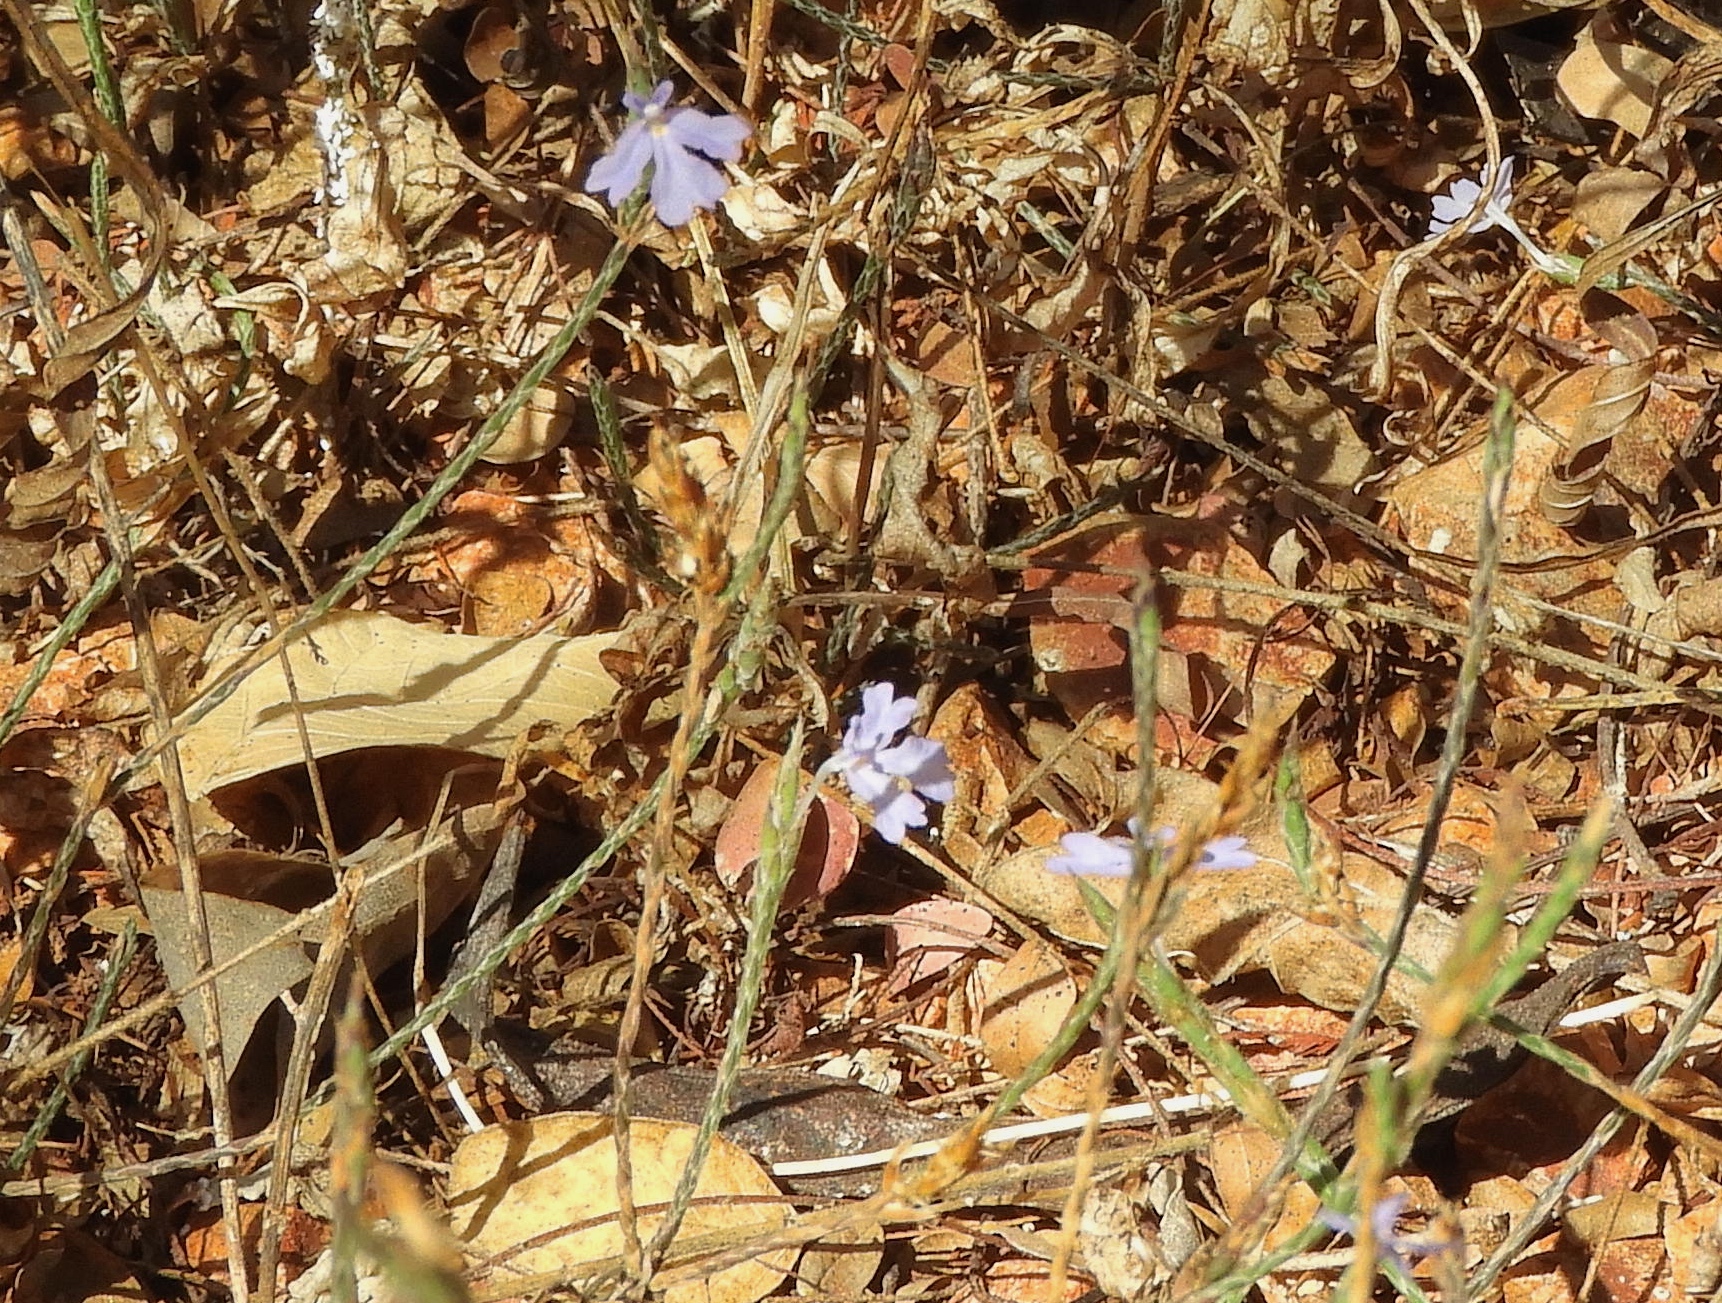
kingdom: Plantae
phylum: Tracheophyta
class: Magnoliopsida
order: Lamiales
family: Acanthaceae
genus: Elytraria
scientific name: Elytraria imbricata
